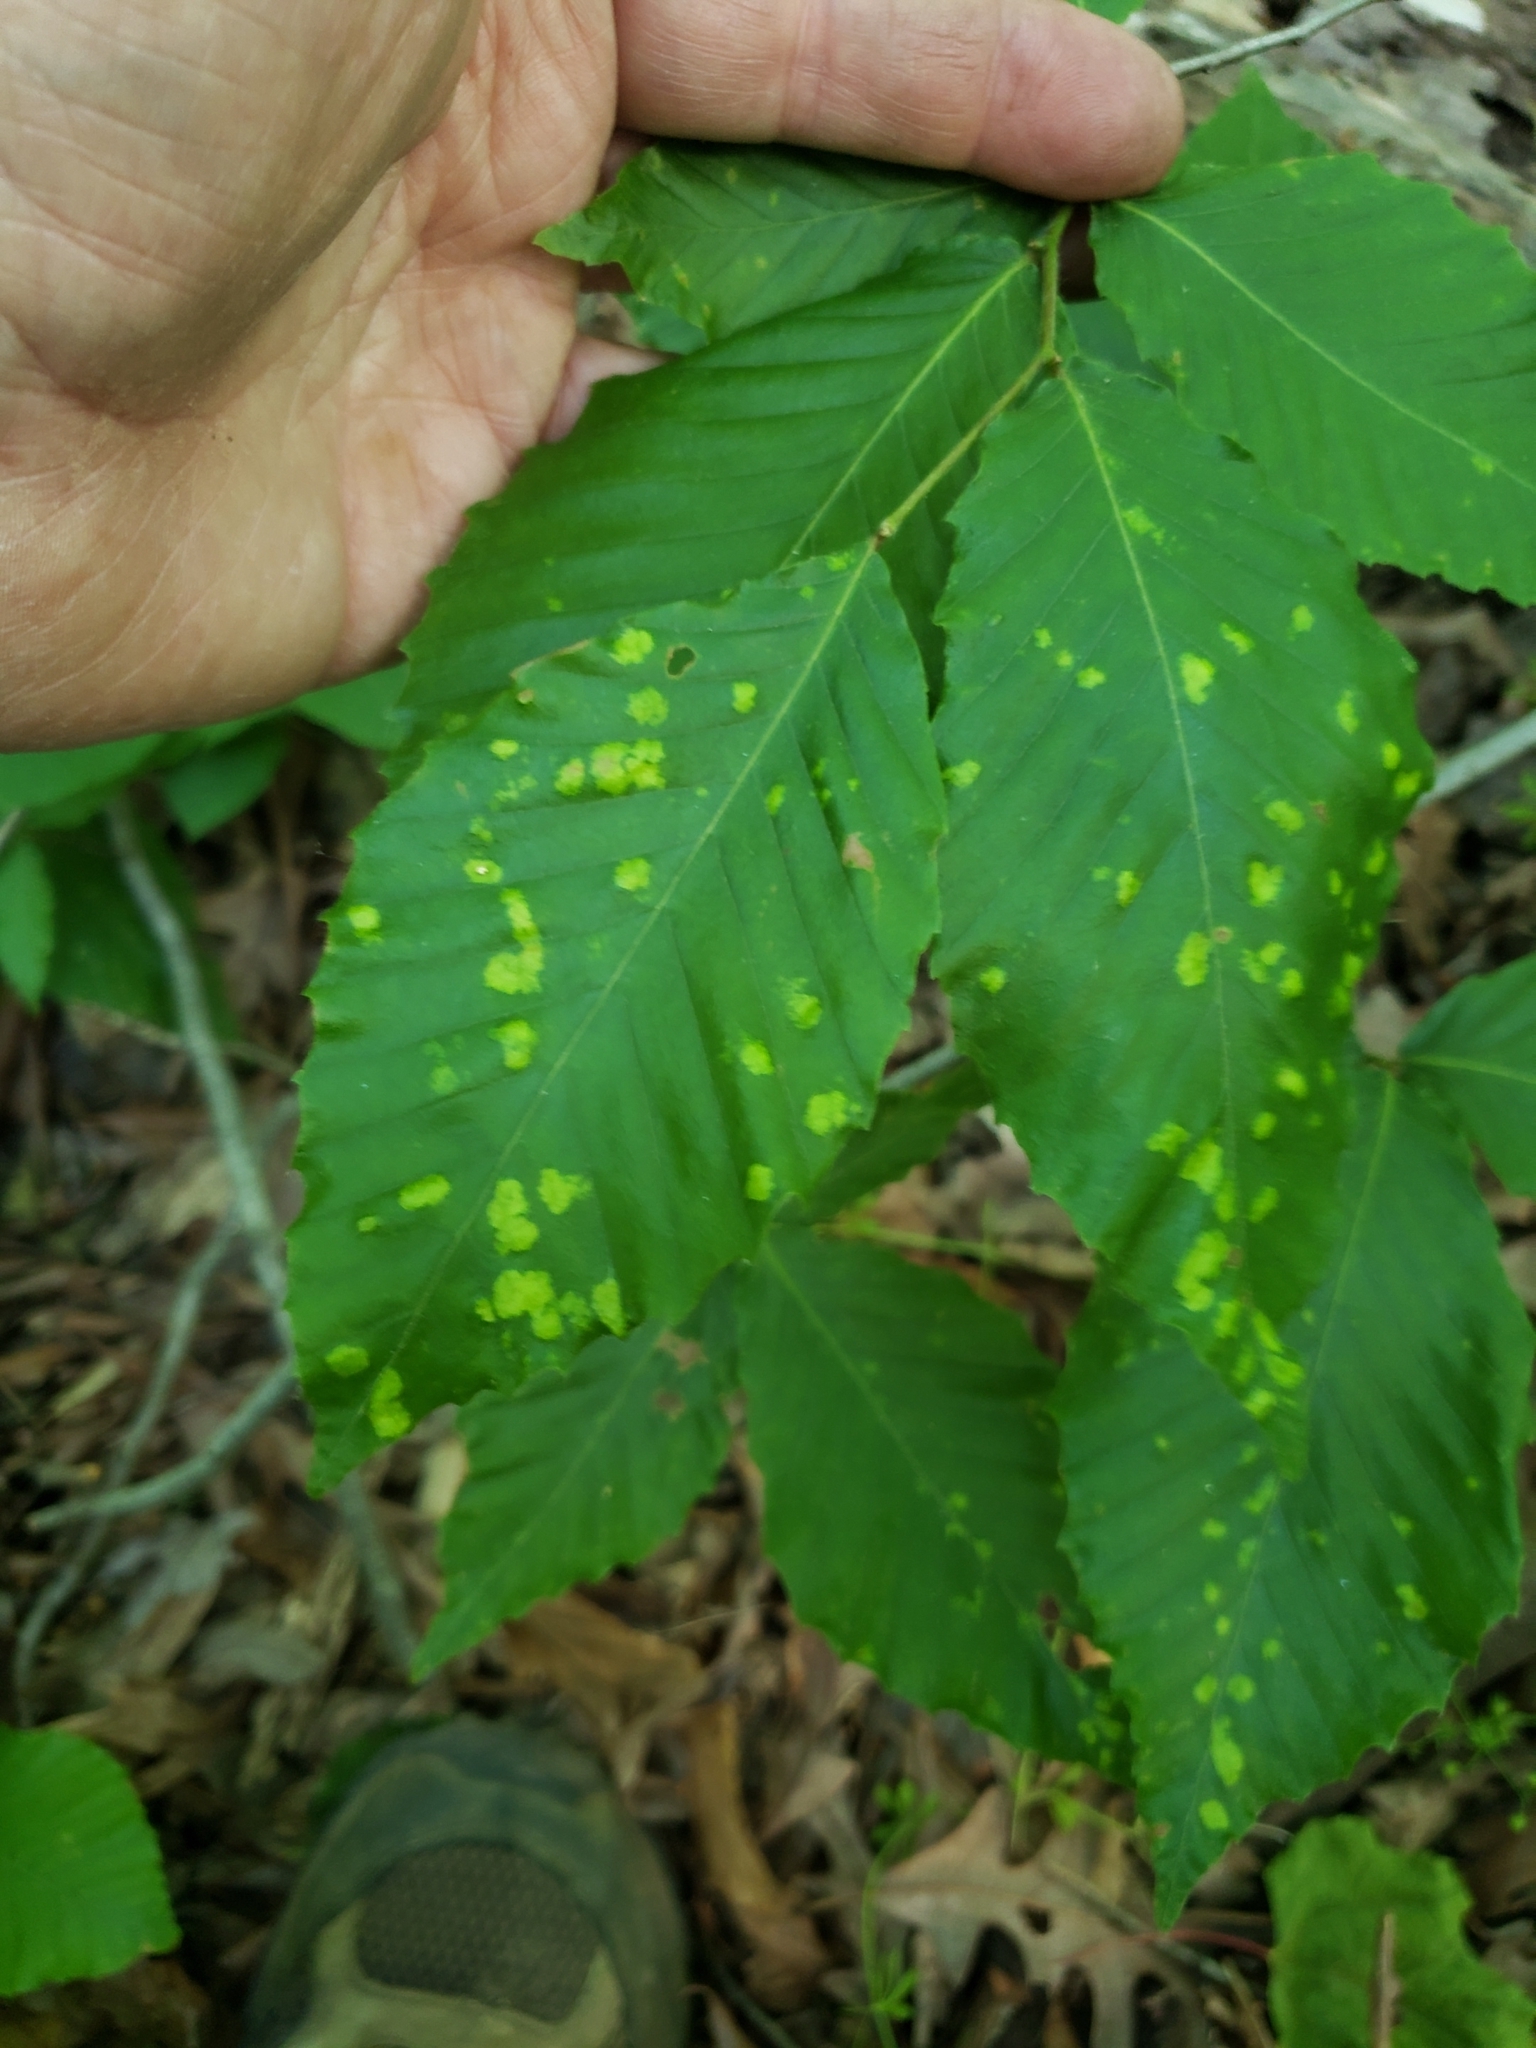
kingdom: Animalia
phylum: Arthropoda
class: Arachnida
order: Trombidiformes
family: Eriophyidae
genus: Acalitus
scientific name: Acalitus
